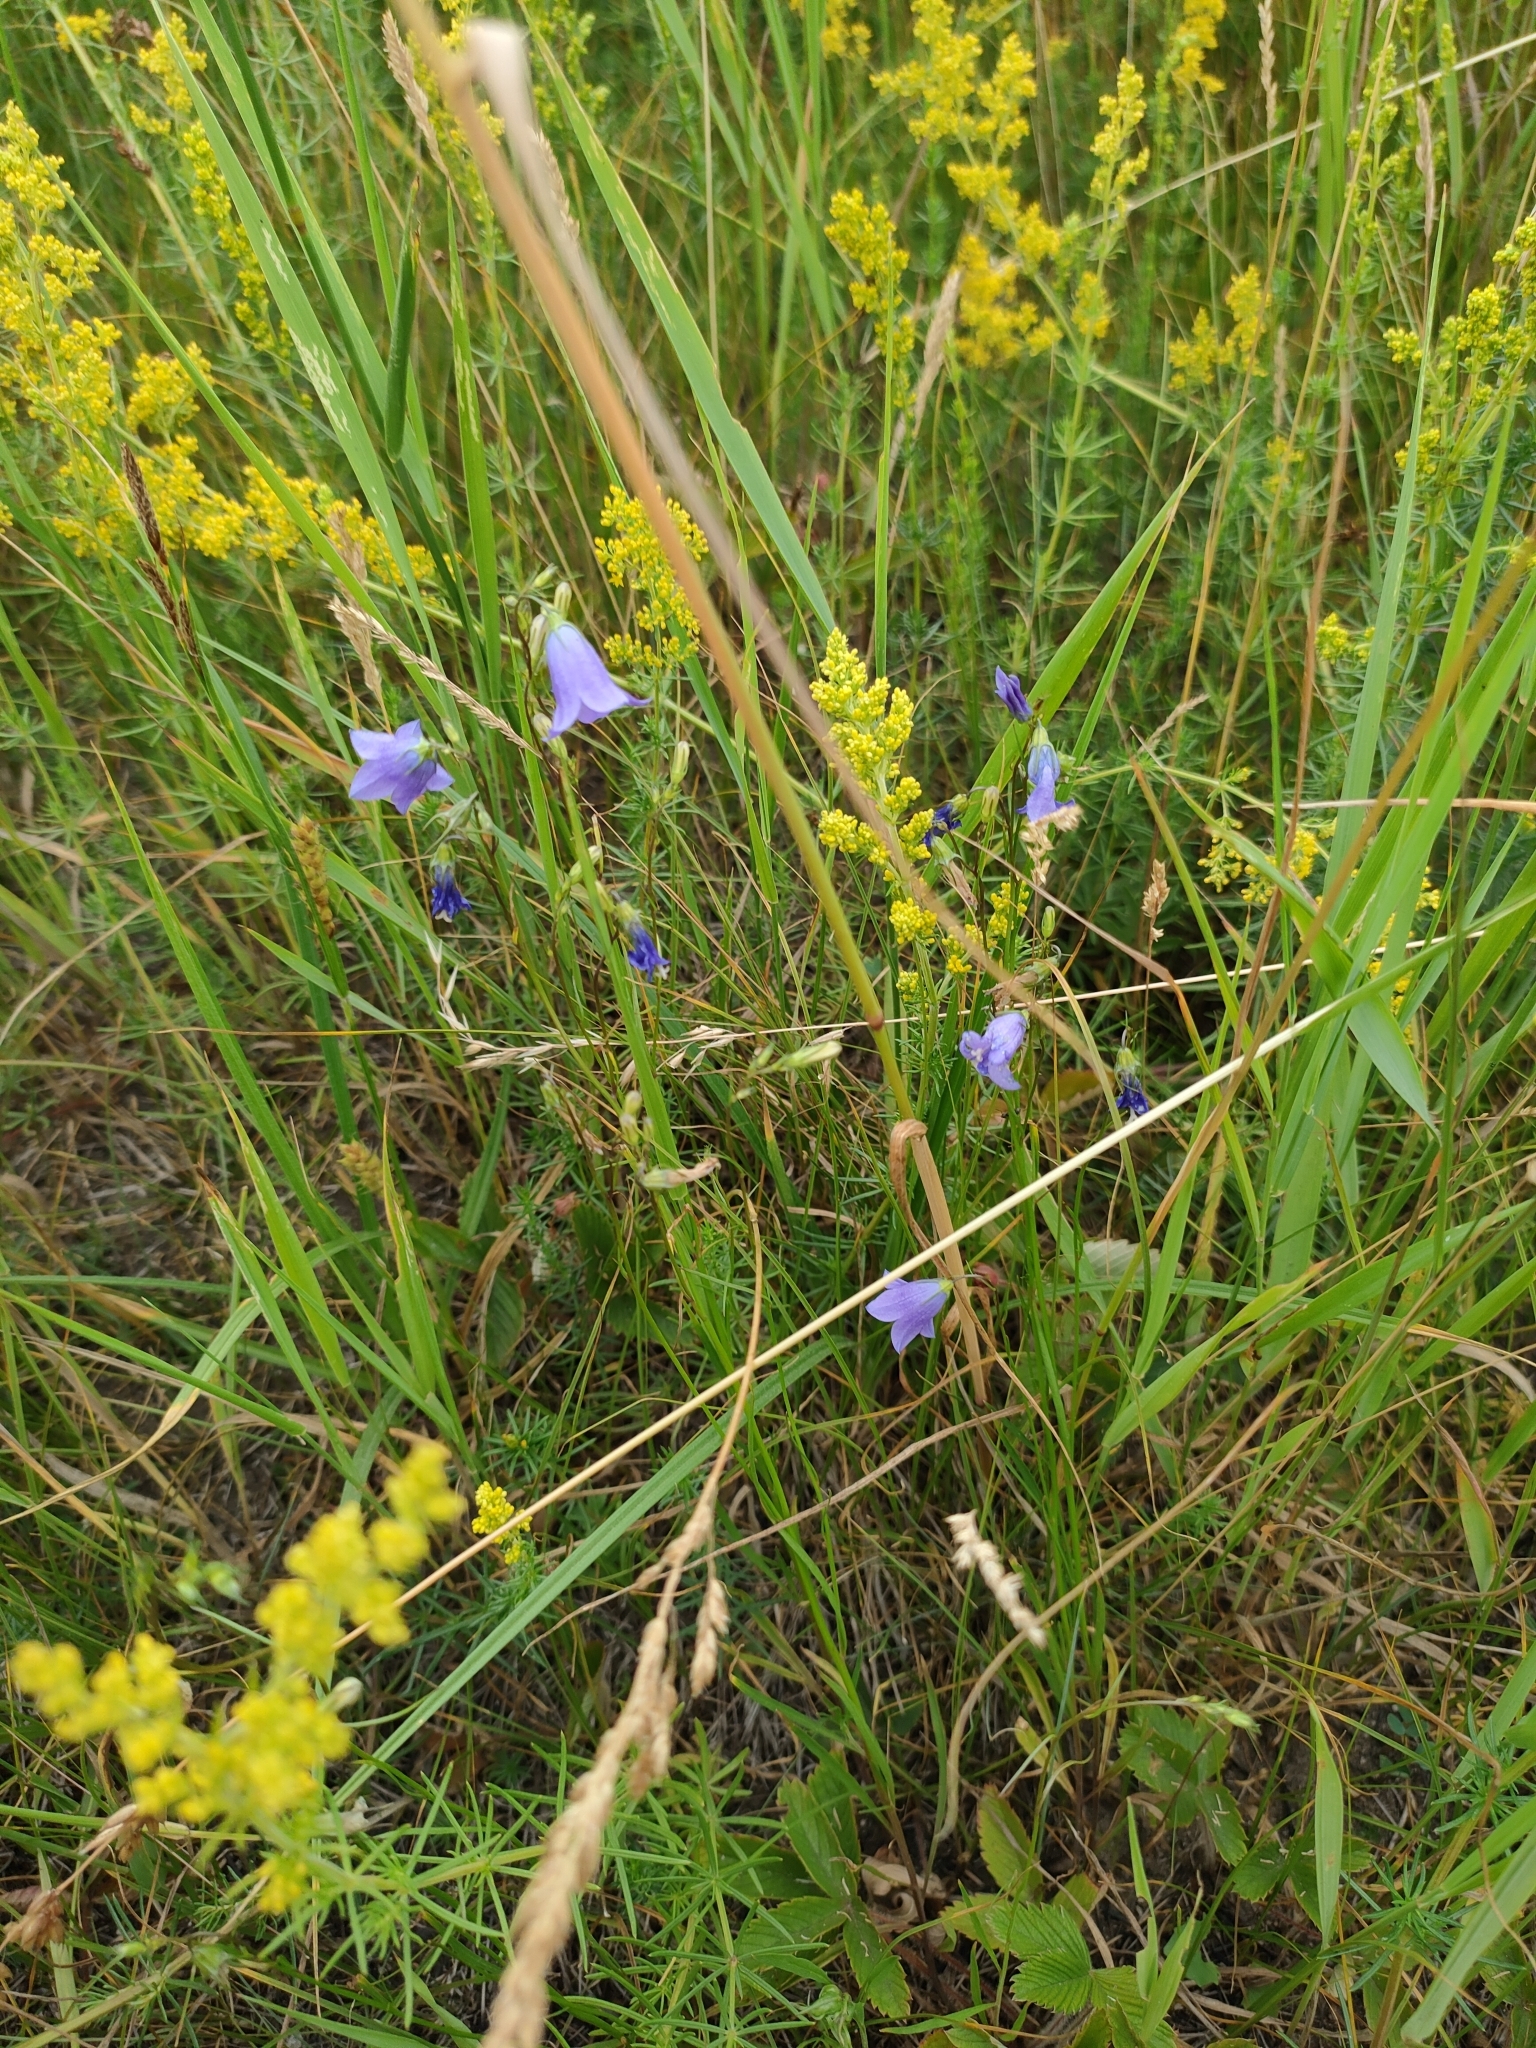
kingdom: Plantae
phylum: Tracheophyta
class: Magnoliopsida
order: Asterales
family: Campanulaceae
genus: Campanula
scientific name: Campanula rotundifolia
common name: Harebell
